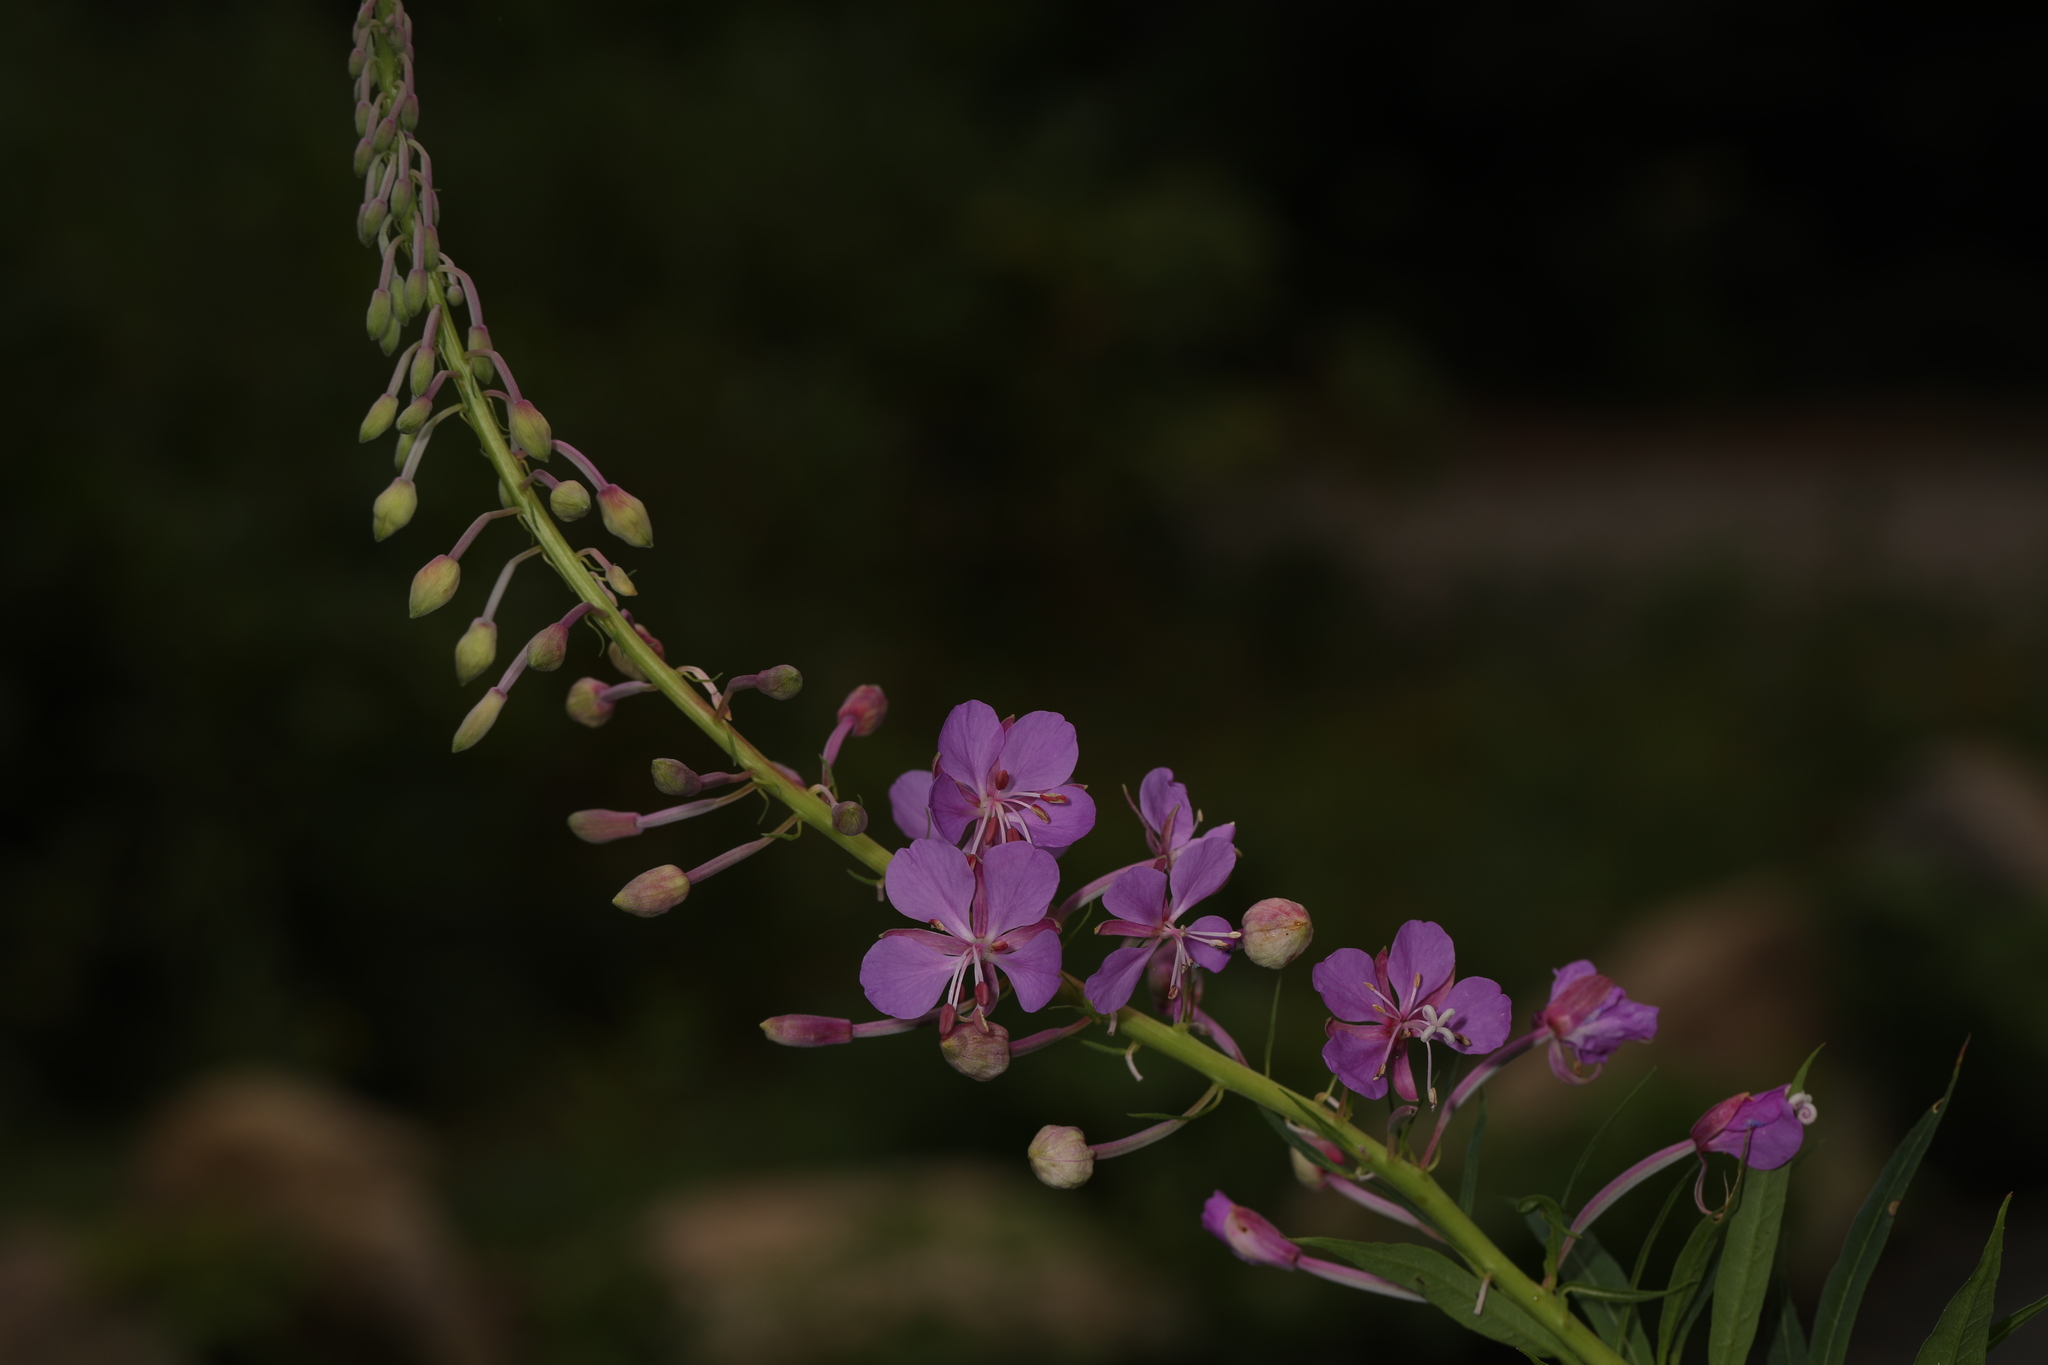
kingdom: Plantae
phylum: Tracheophyta
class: Magnoliopsida
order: Myrtales
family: Onagraceae
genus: Chamaenerion
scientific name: Chamaenerion angustifolium
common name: Fireweed
